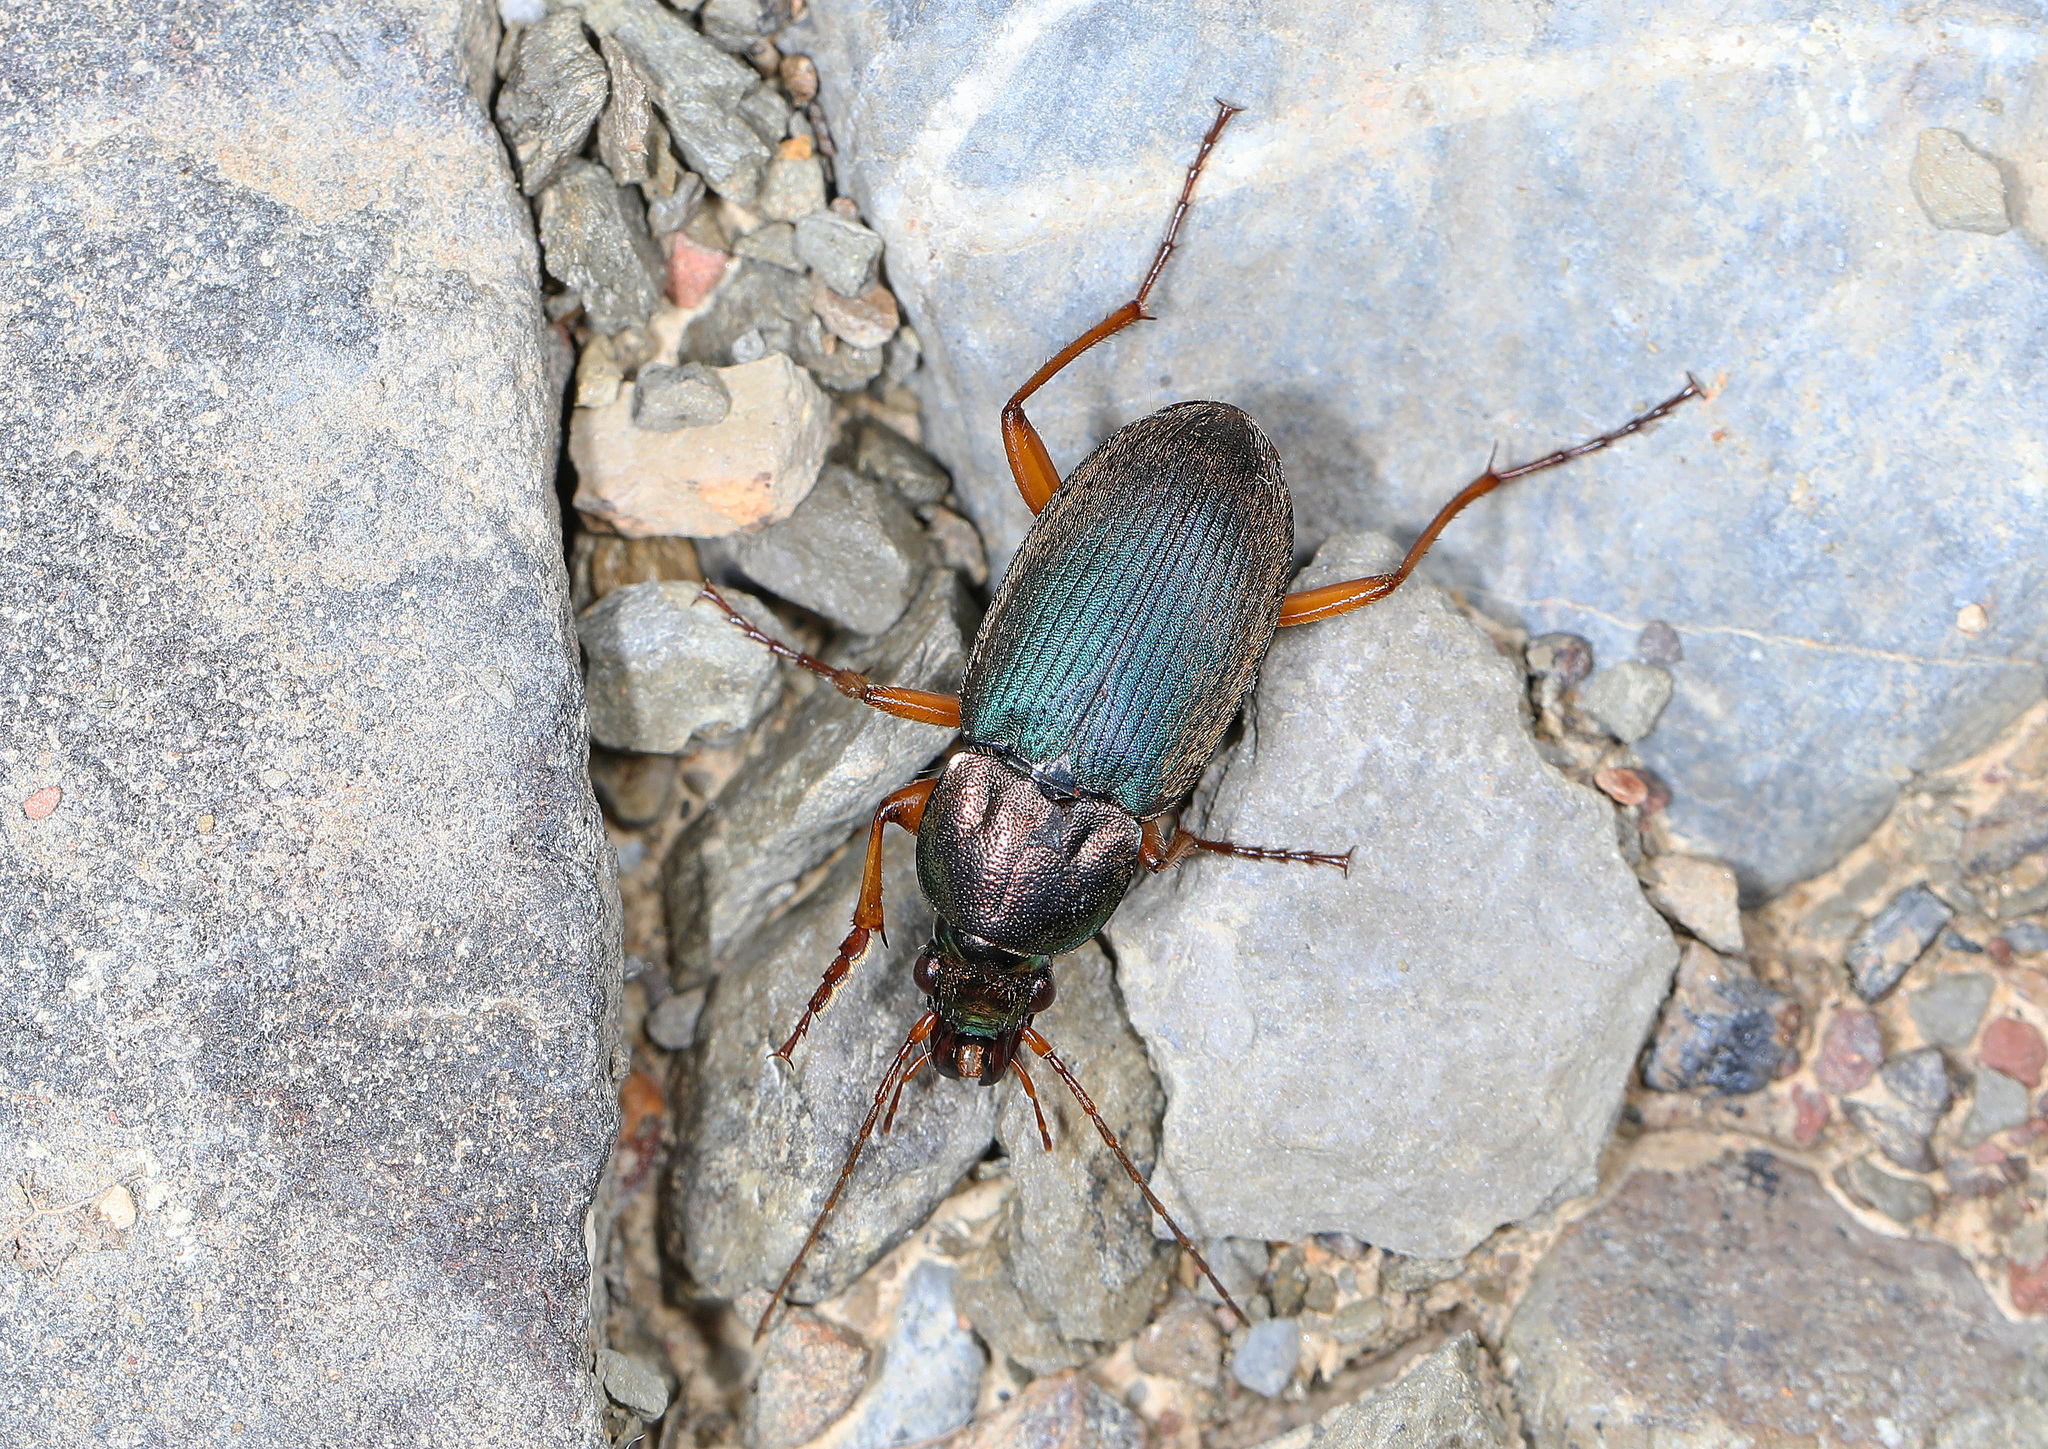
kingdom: Animalia
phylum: Arthropoda
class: Insecta
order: Coleoptera
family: Carabidae
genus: Chlaenius
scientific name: Chlaenius emarginatus
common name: Emarginate chlaenius
